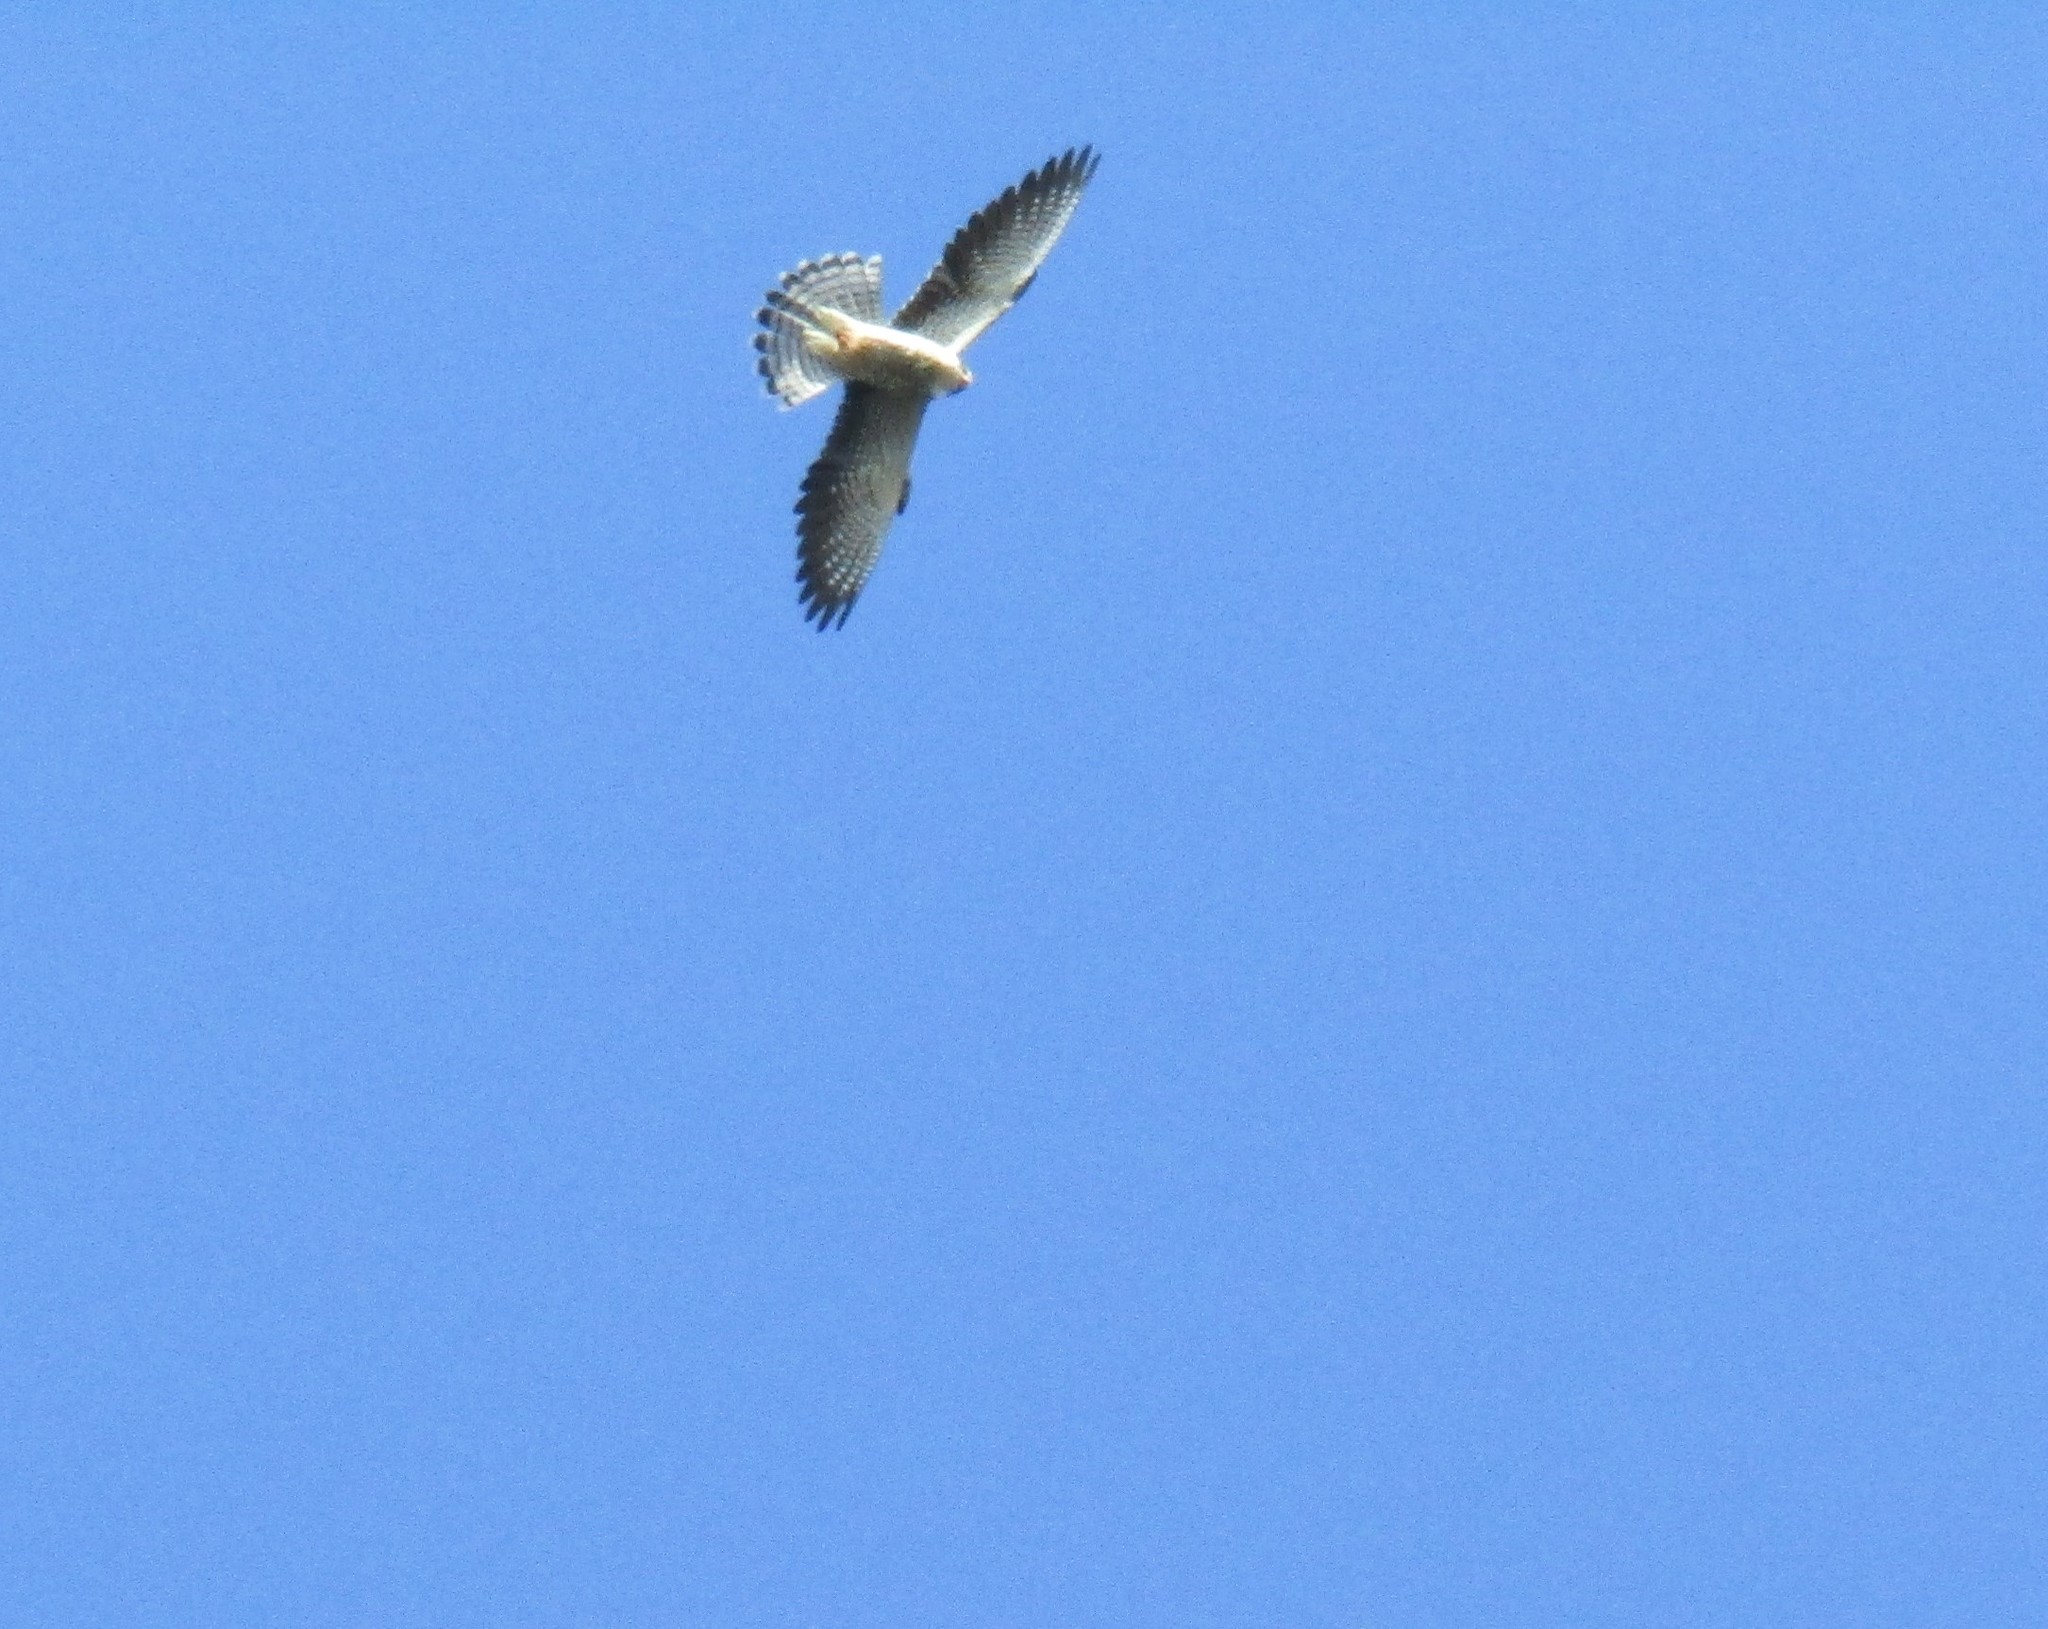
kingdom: Animalia
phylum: Chordata
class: Aves
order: Falconiformes
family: Falconidae
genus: Falco
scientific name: Falco amurensis
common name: Amur falcon
